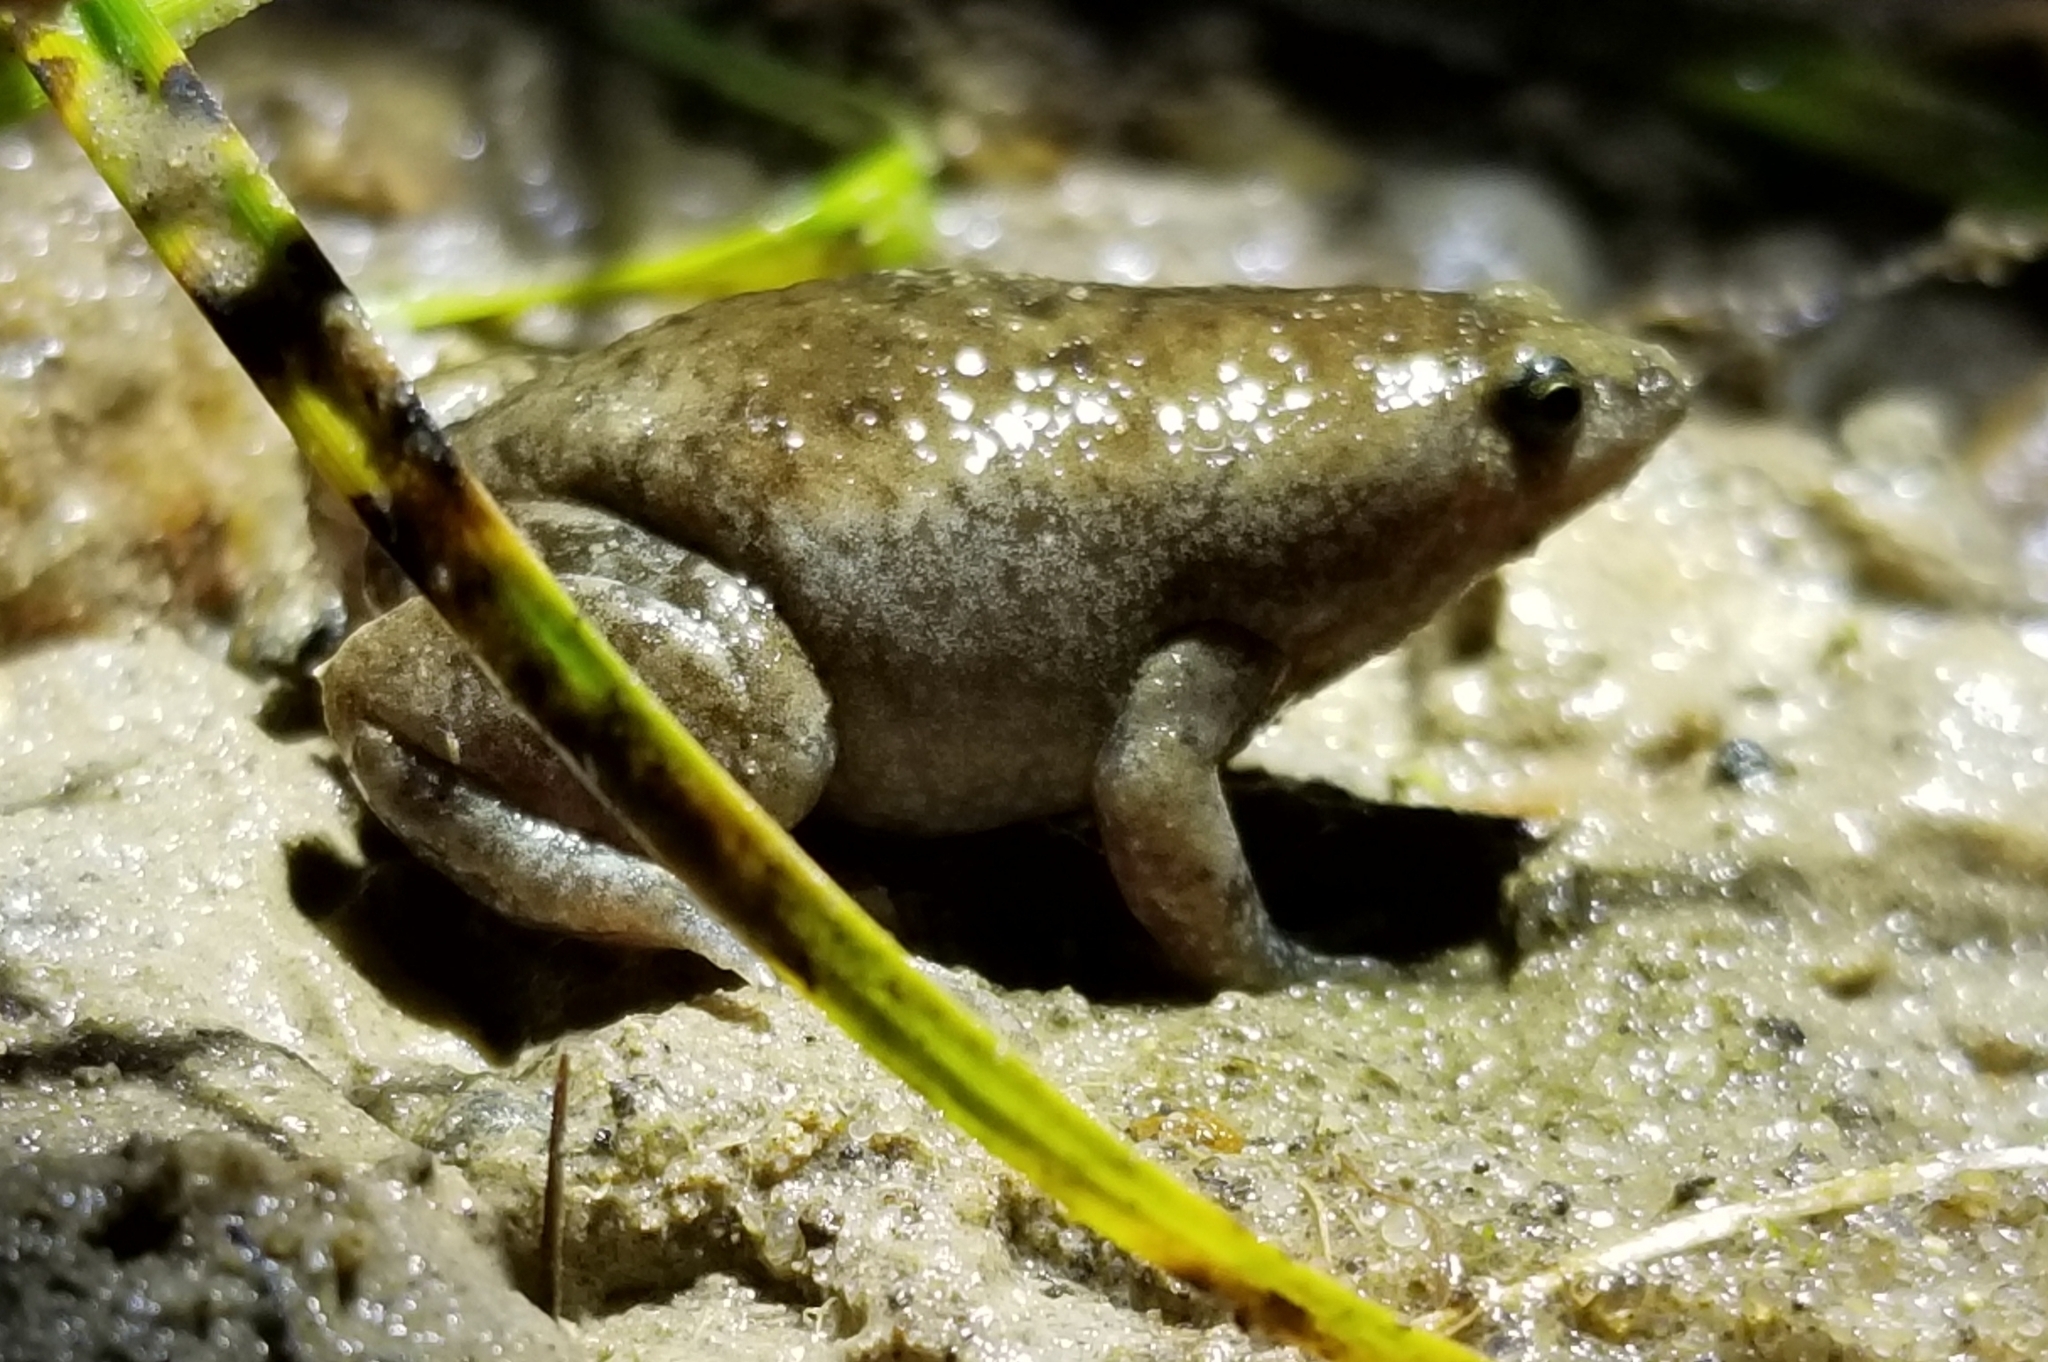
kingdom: Animalia
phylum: Chordata
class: Amphibia
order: Anura
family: Microhylidae
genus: Gastrophryne
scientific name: Gastrophryne carolinensis
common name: Eastern narrowmouth toad
